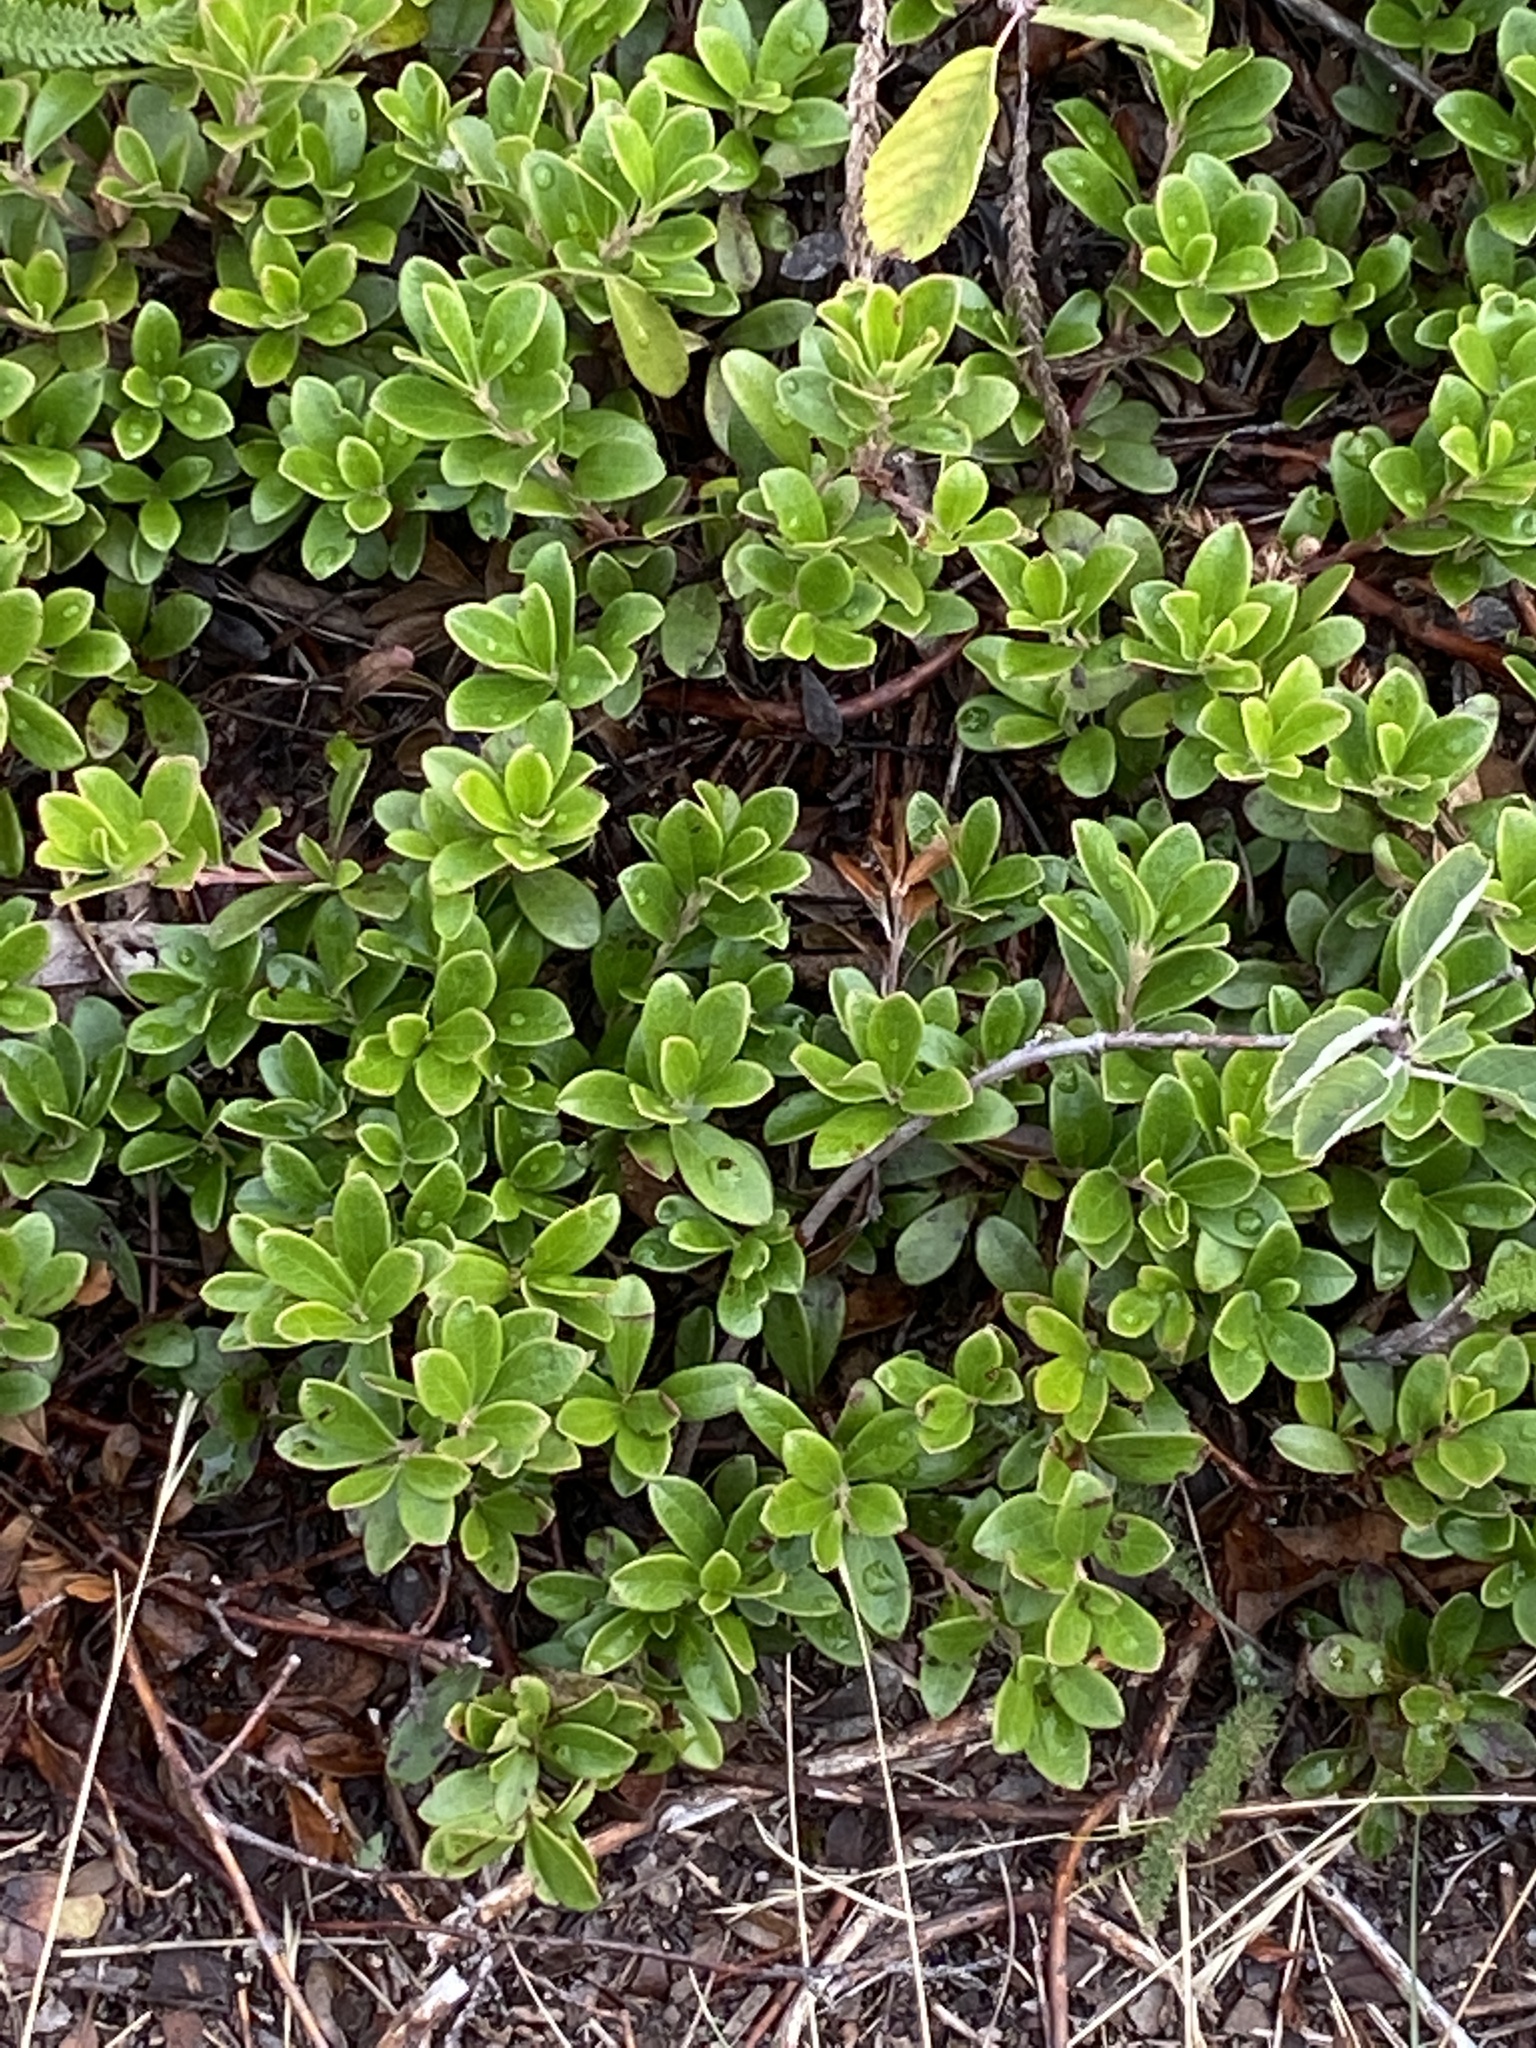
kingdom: Plantae
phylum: Tracheophyta
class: Magnoliopsida
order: Ericales
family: Ericaceae
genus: Arctostaphylos
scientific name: Arctostaphylos uva-ursi
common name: Bearberry
